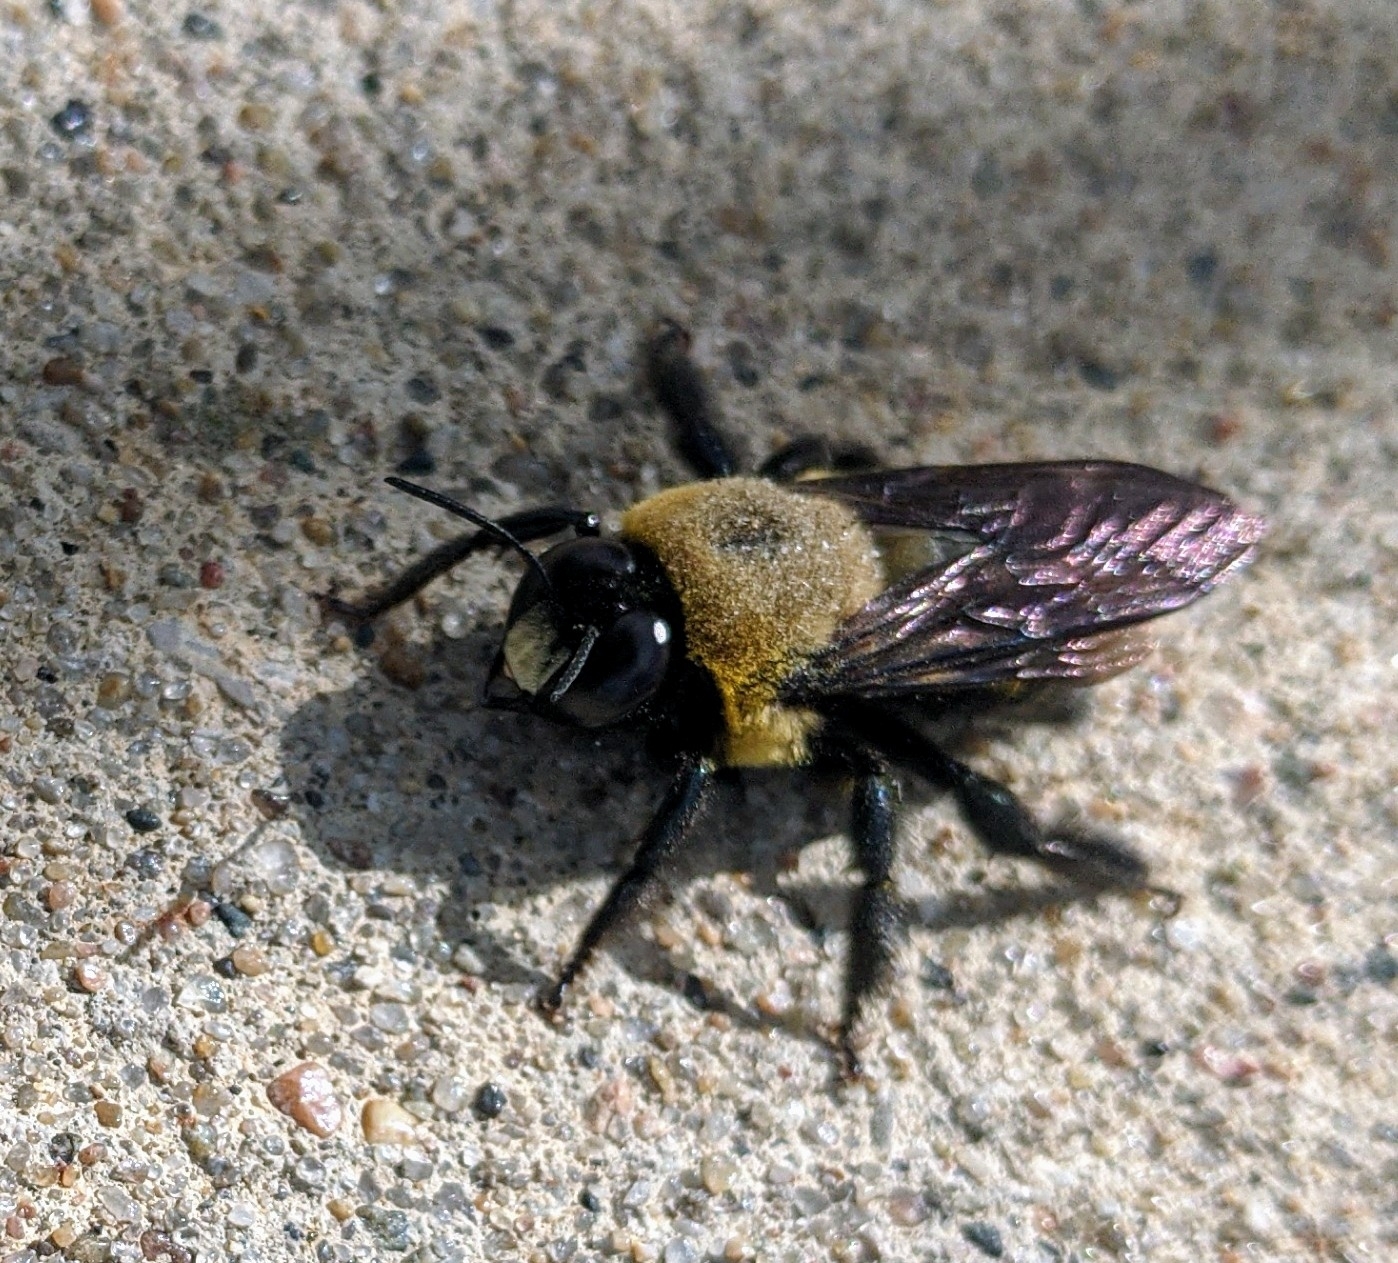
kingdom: Animalia
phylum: Arthropoda
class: Insecta
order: Hymenoptera
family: Apidae
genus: Xylocopa
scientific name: Xylocopa virginica
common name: Carpenter bee
